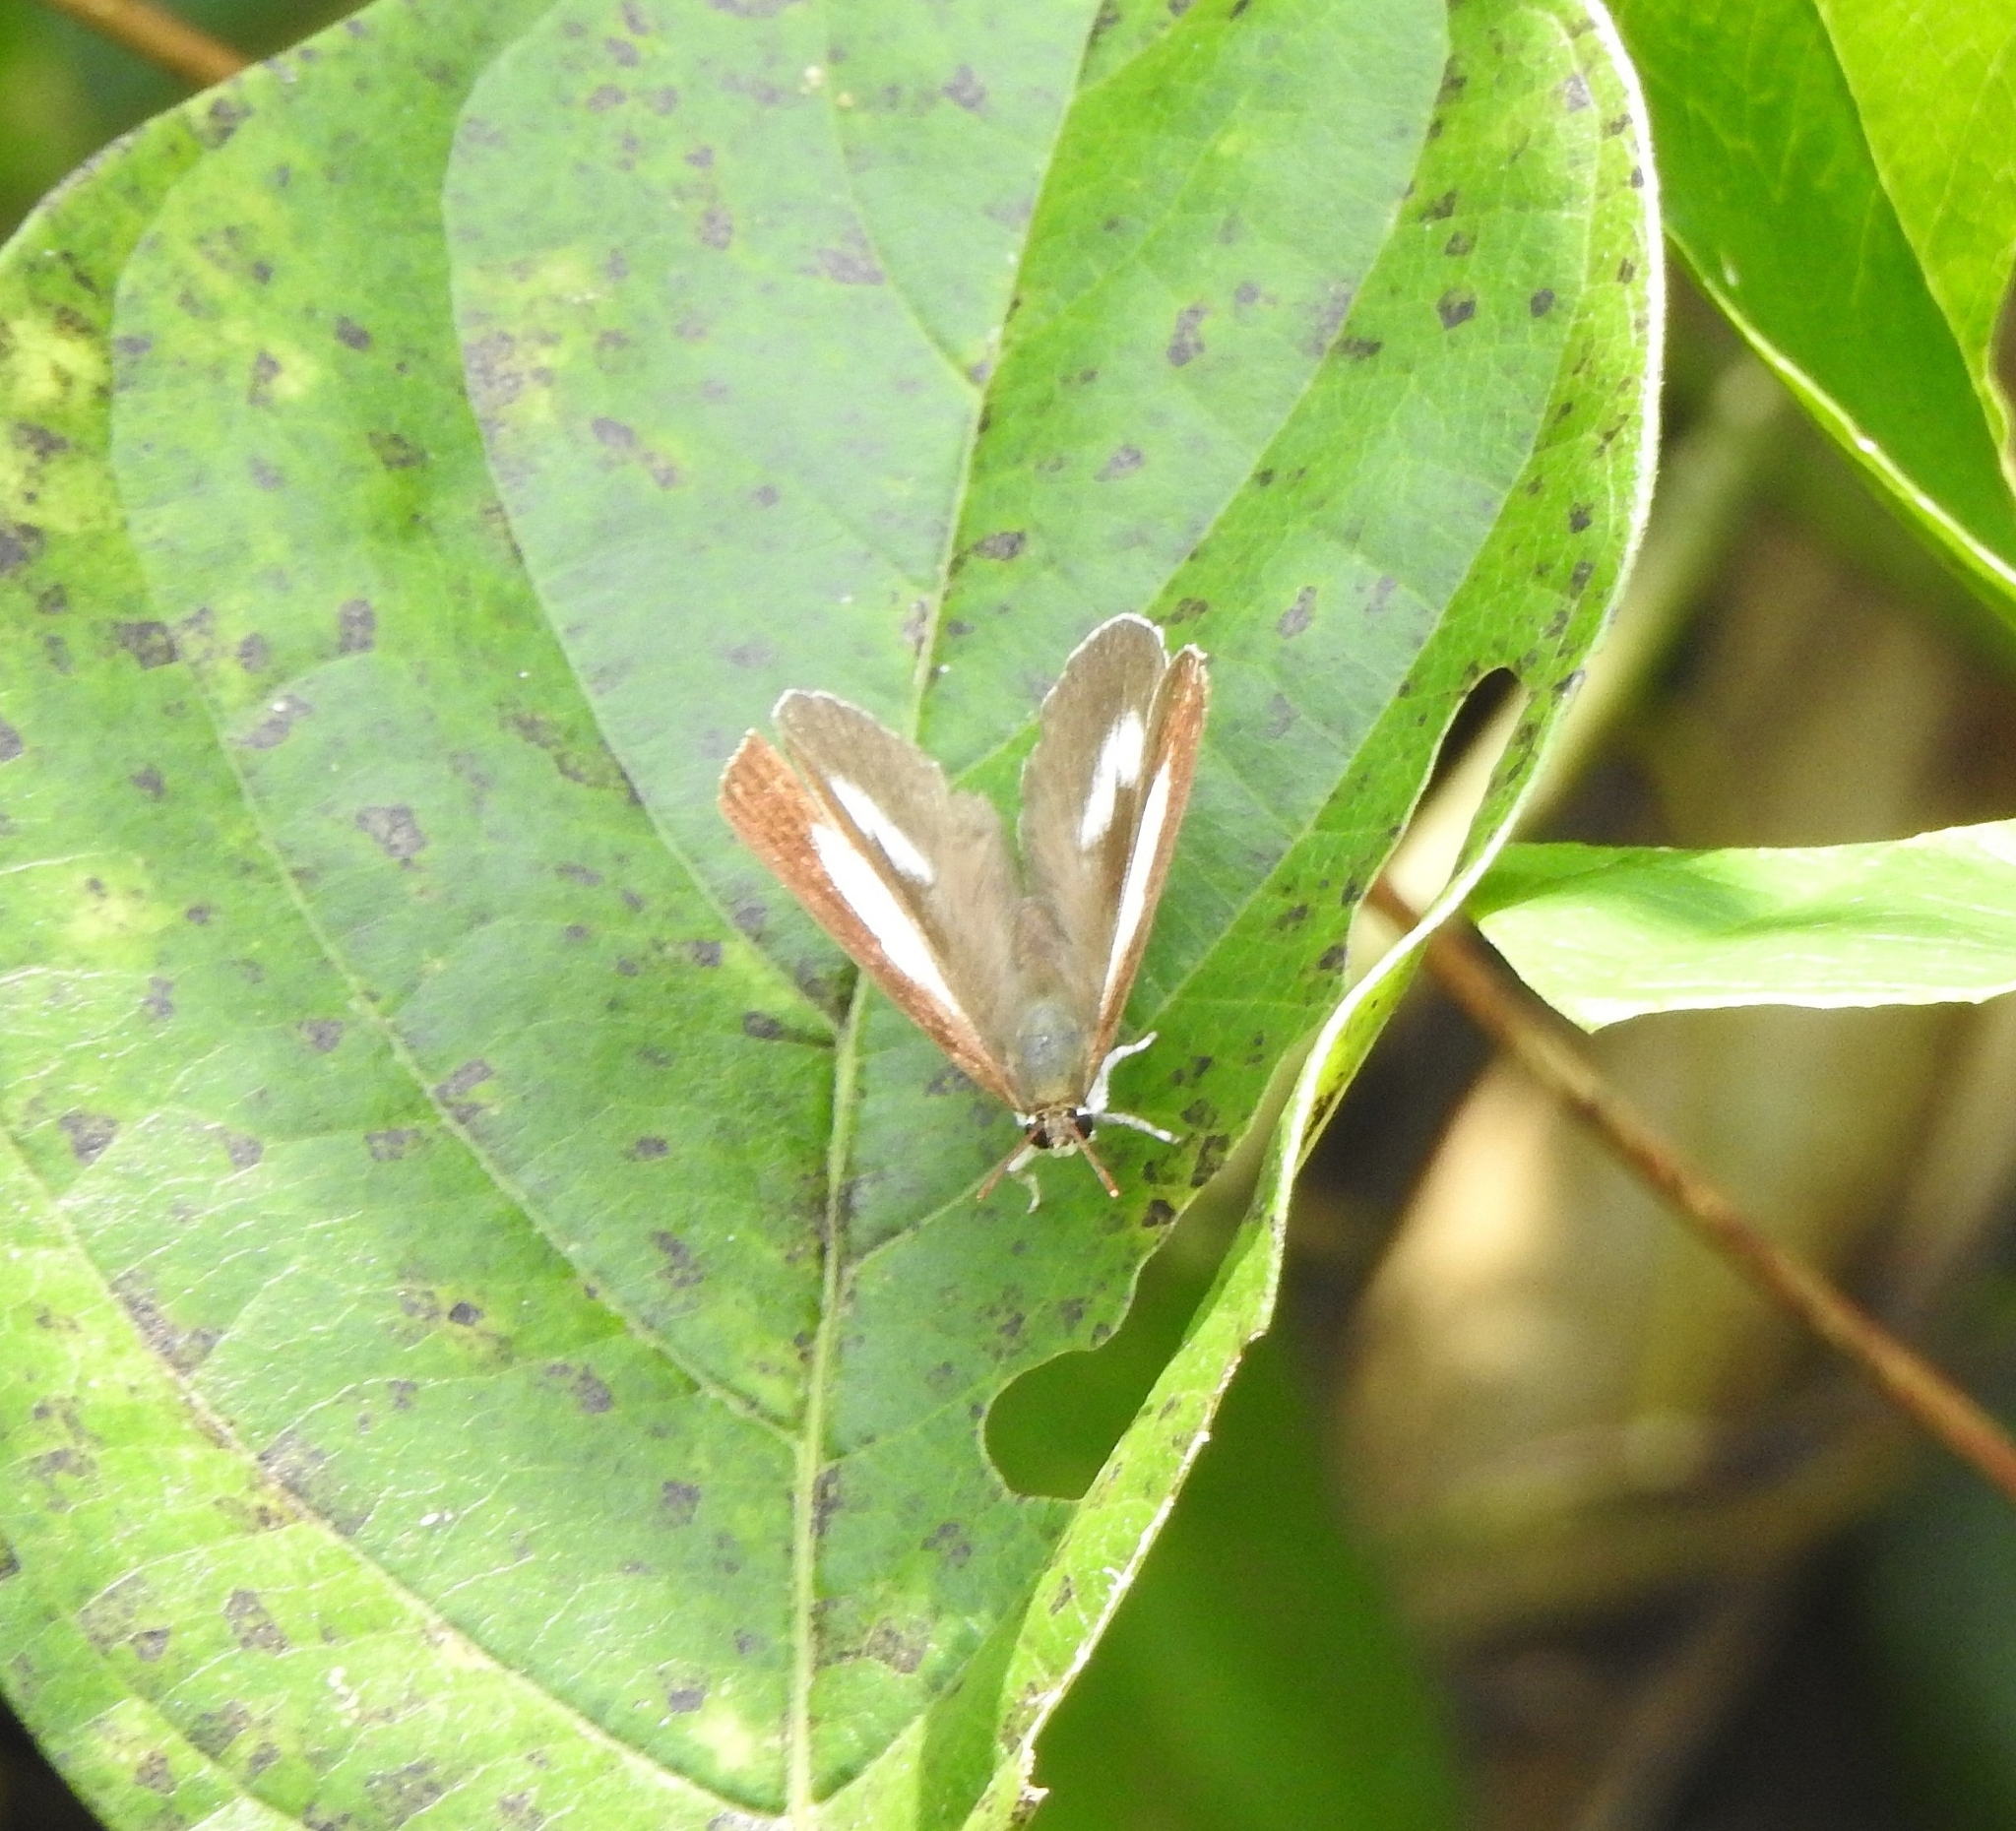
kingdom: Animalia
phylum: Arthropoda
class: Insecta
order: Lepidoptera
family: Lycaenidae
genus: Curetis
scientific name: Curetis thetis
